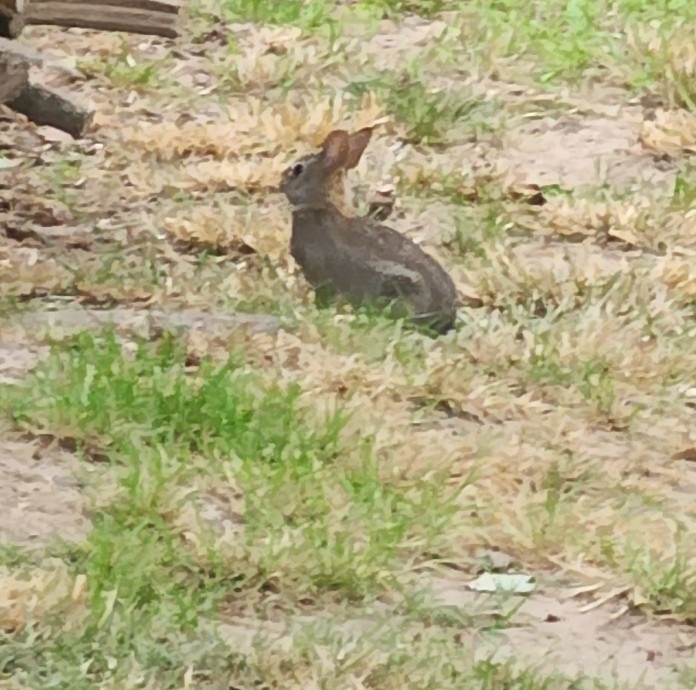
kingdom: Animalia
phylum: Chordata
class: Mammalia
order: Lagomorpha
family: Leporidae
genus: Sylvilagus
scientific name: Sylvilagus floridanus
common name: Eastern cottontail
